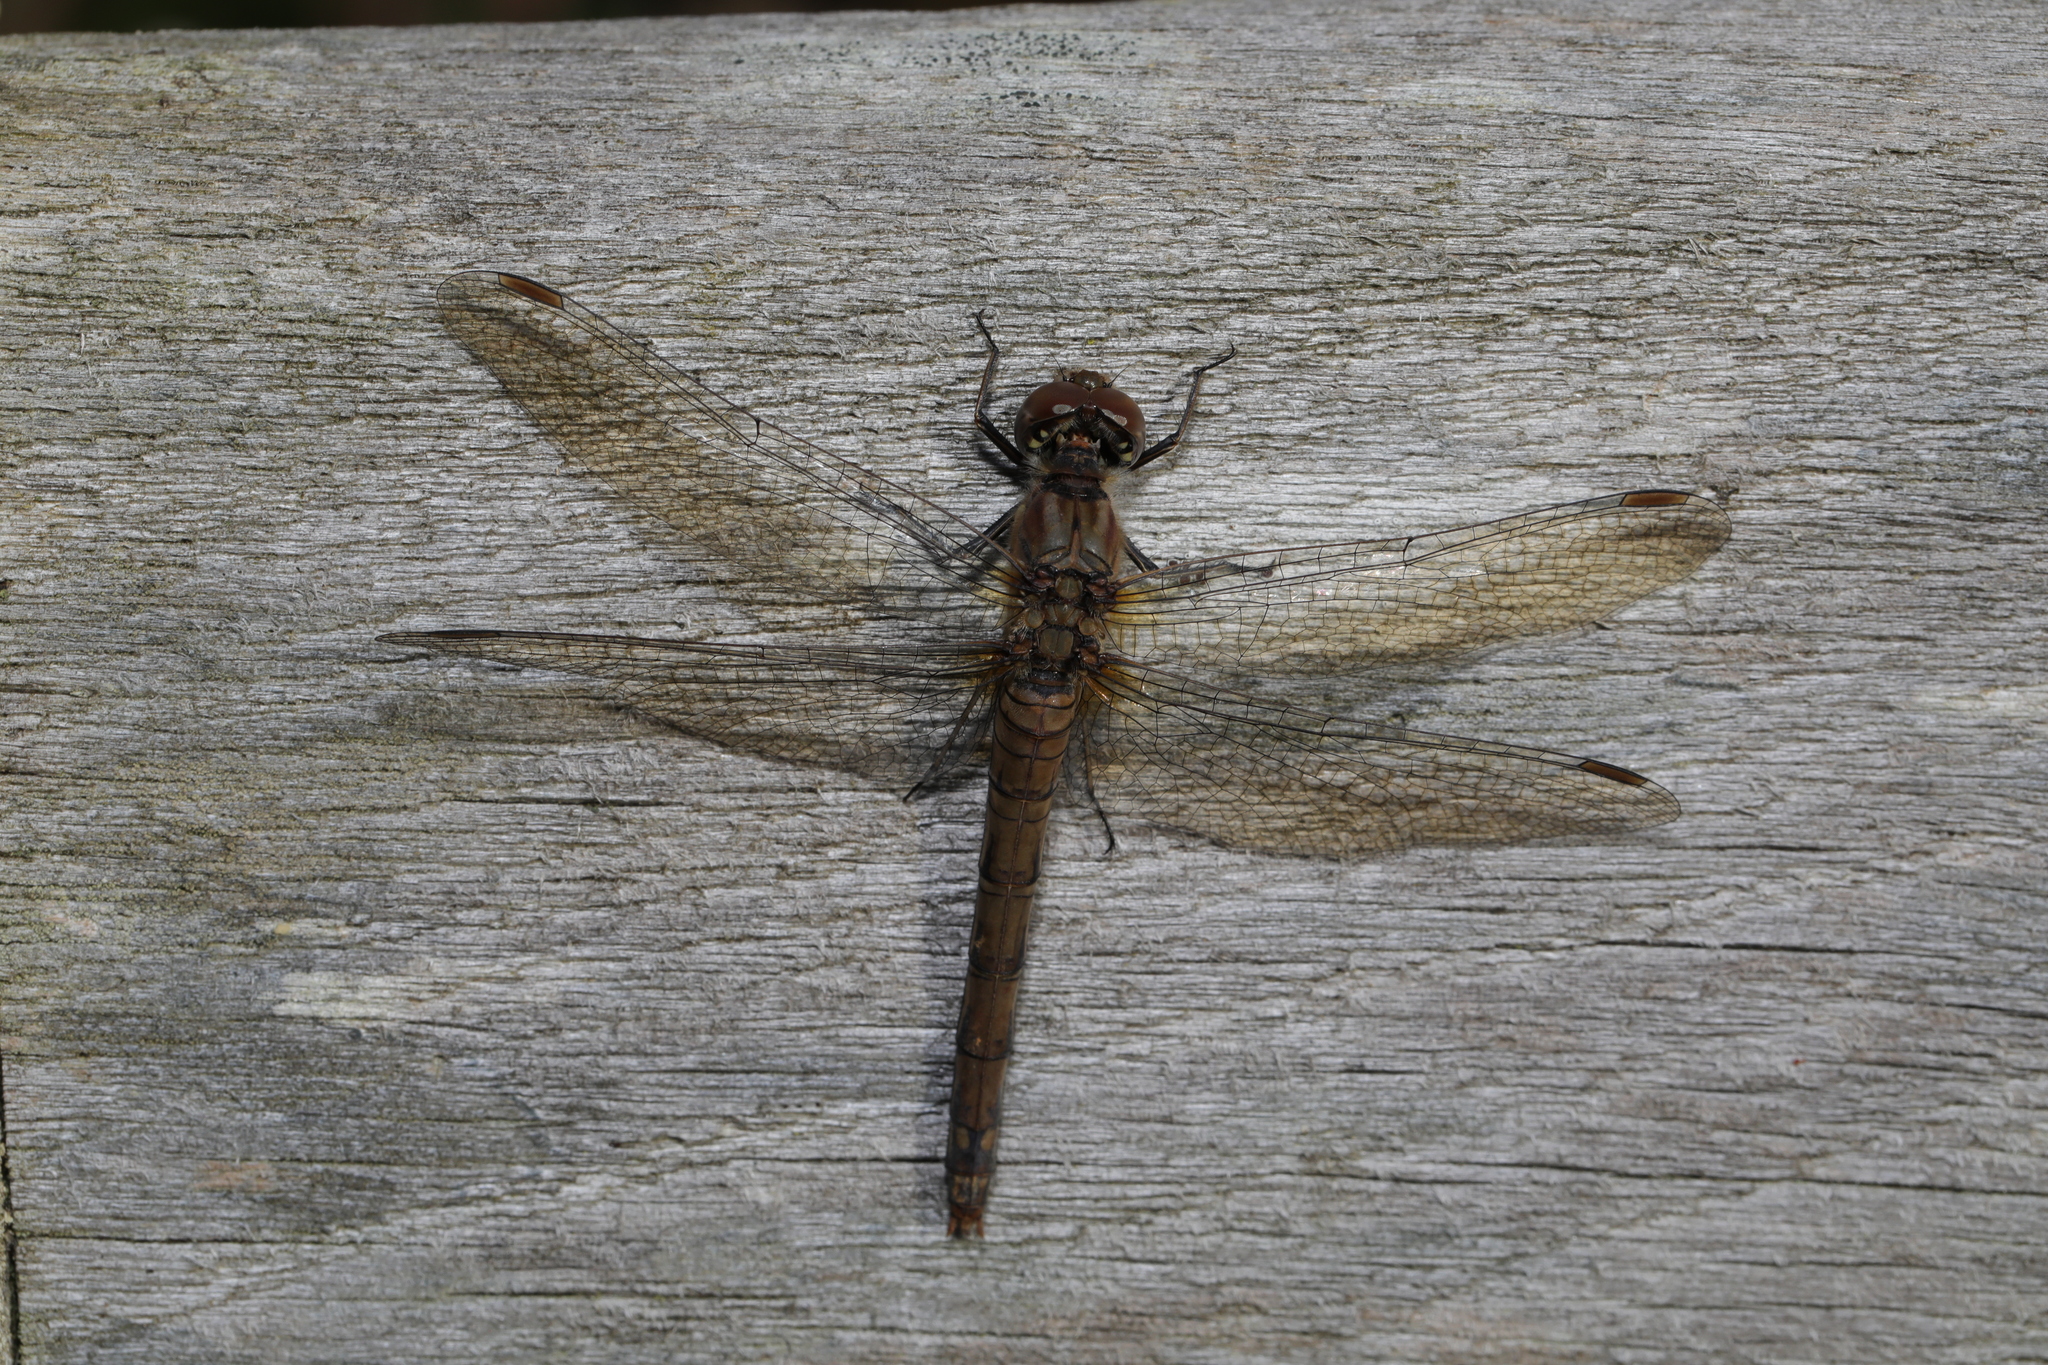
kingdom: Animalia
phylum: Arthropoda
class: Insecta
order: Odonata
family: Libellulidae
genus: Sympetrum
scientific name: Sympetrum striolatum
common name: Common darter
